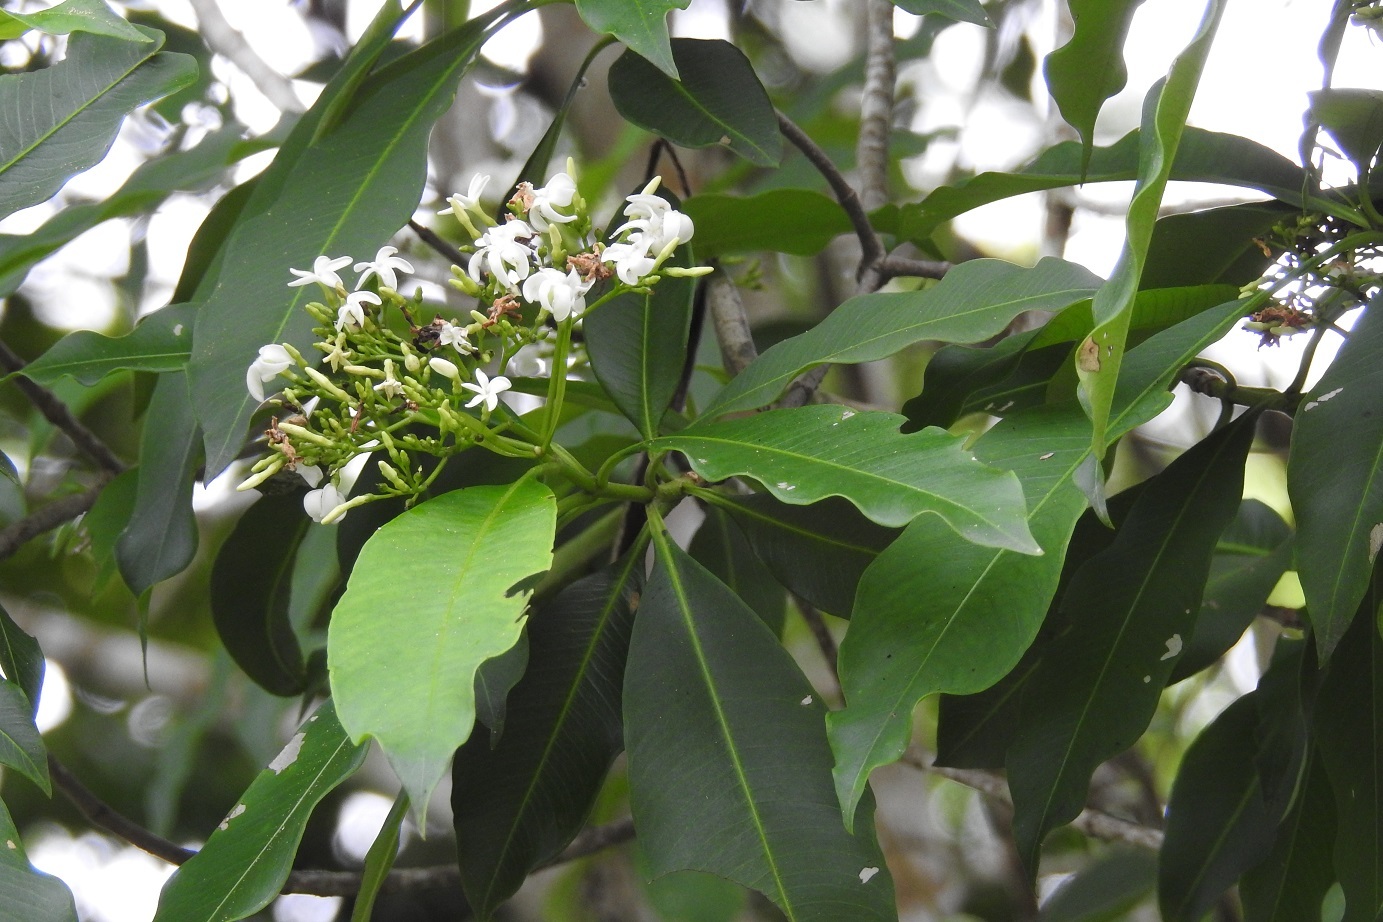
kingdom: Plantae
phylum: Tracheophyta
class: Magnoliopsida
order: Gentianales
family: Apocynaceae
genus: Tonduzia
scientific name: Tonduzia longifolia
